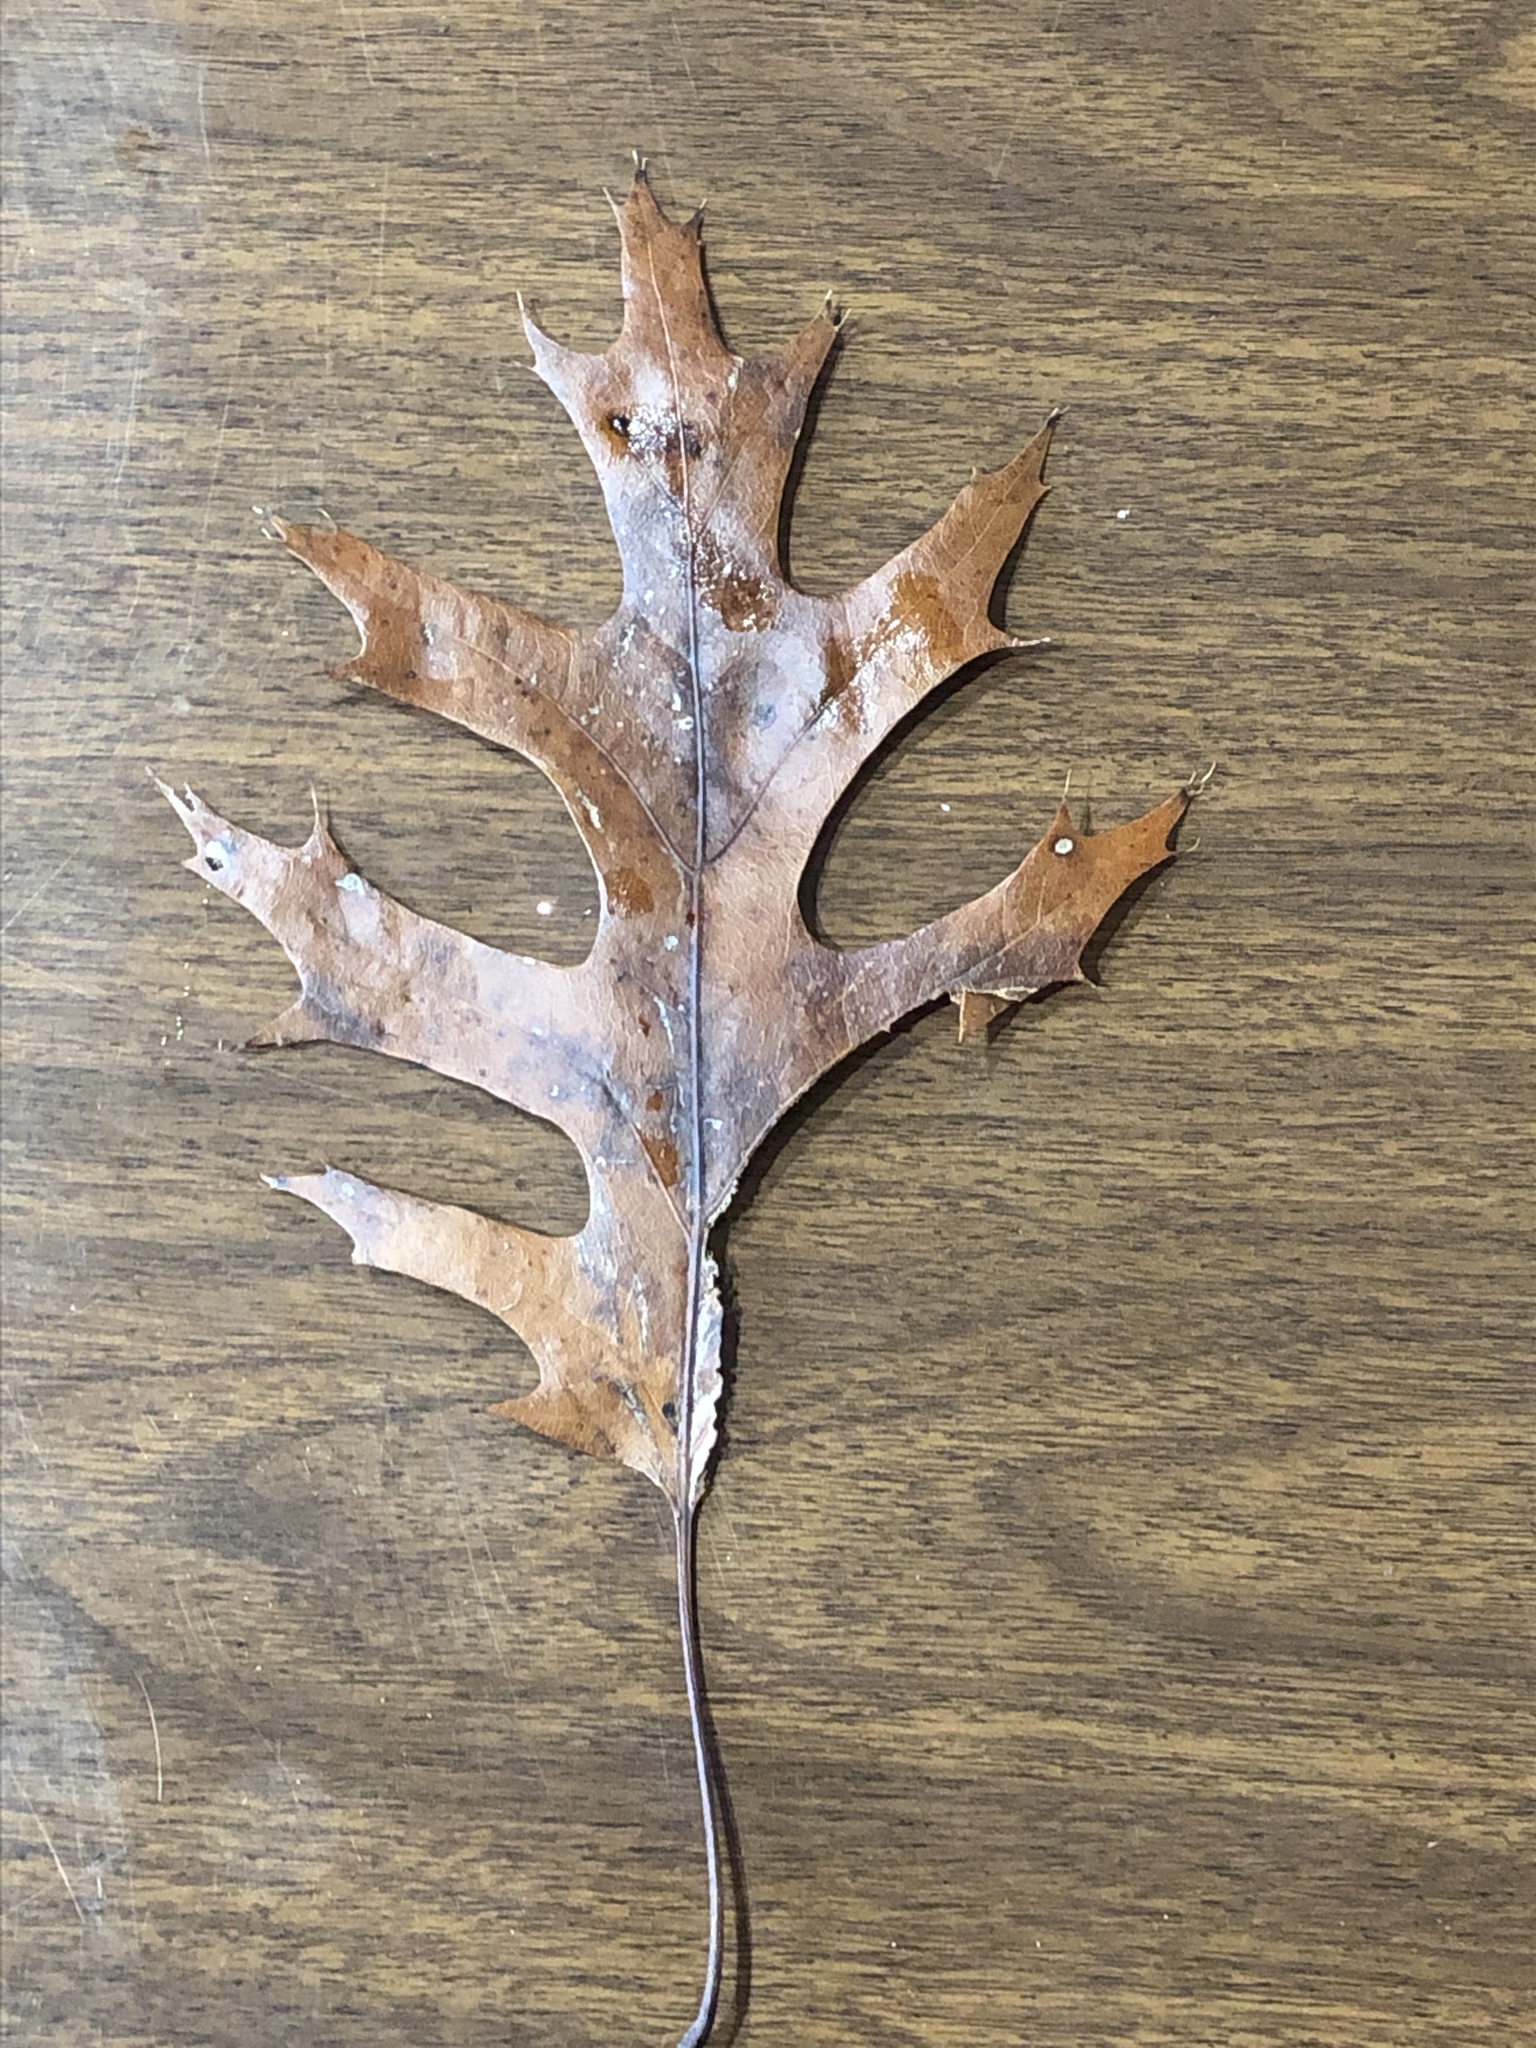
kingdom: Plantae
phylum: Tracheophyta
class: Magnoliopsida
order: Fagales
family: Fagaceae
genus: Quercus
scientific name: Quercus coccinea
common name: Scarlet oak
